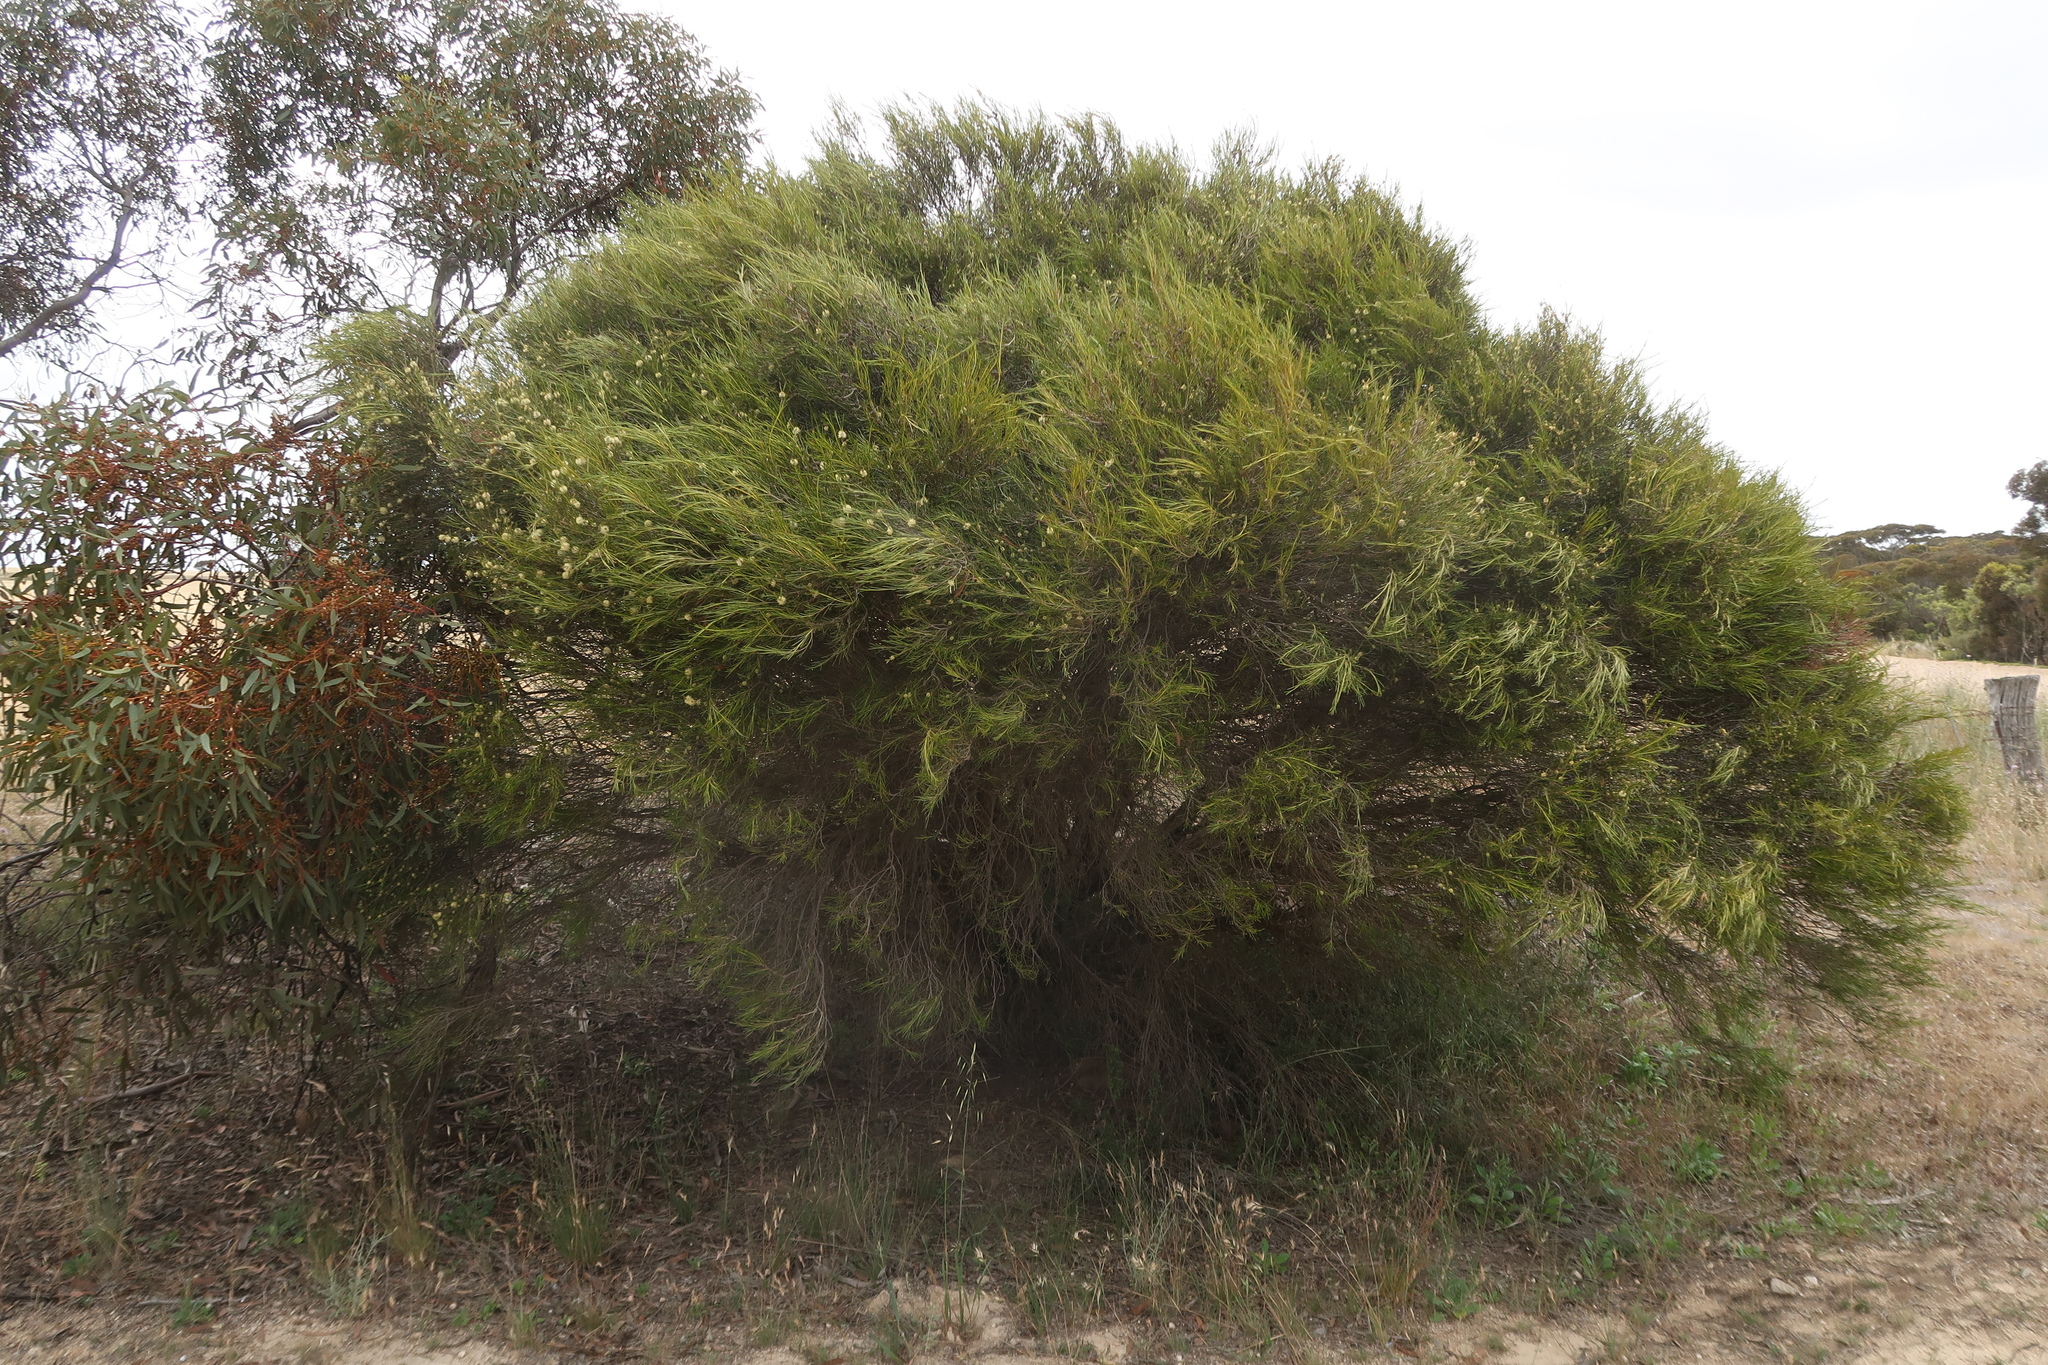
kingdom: Plantae
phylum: Tracheophyta
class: Magnoliopsida
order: Myrtales
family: Myrtaceae
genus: Melaleuca
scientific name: Melaleuca uncinata
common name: Broom honey myrtle
